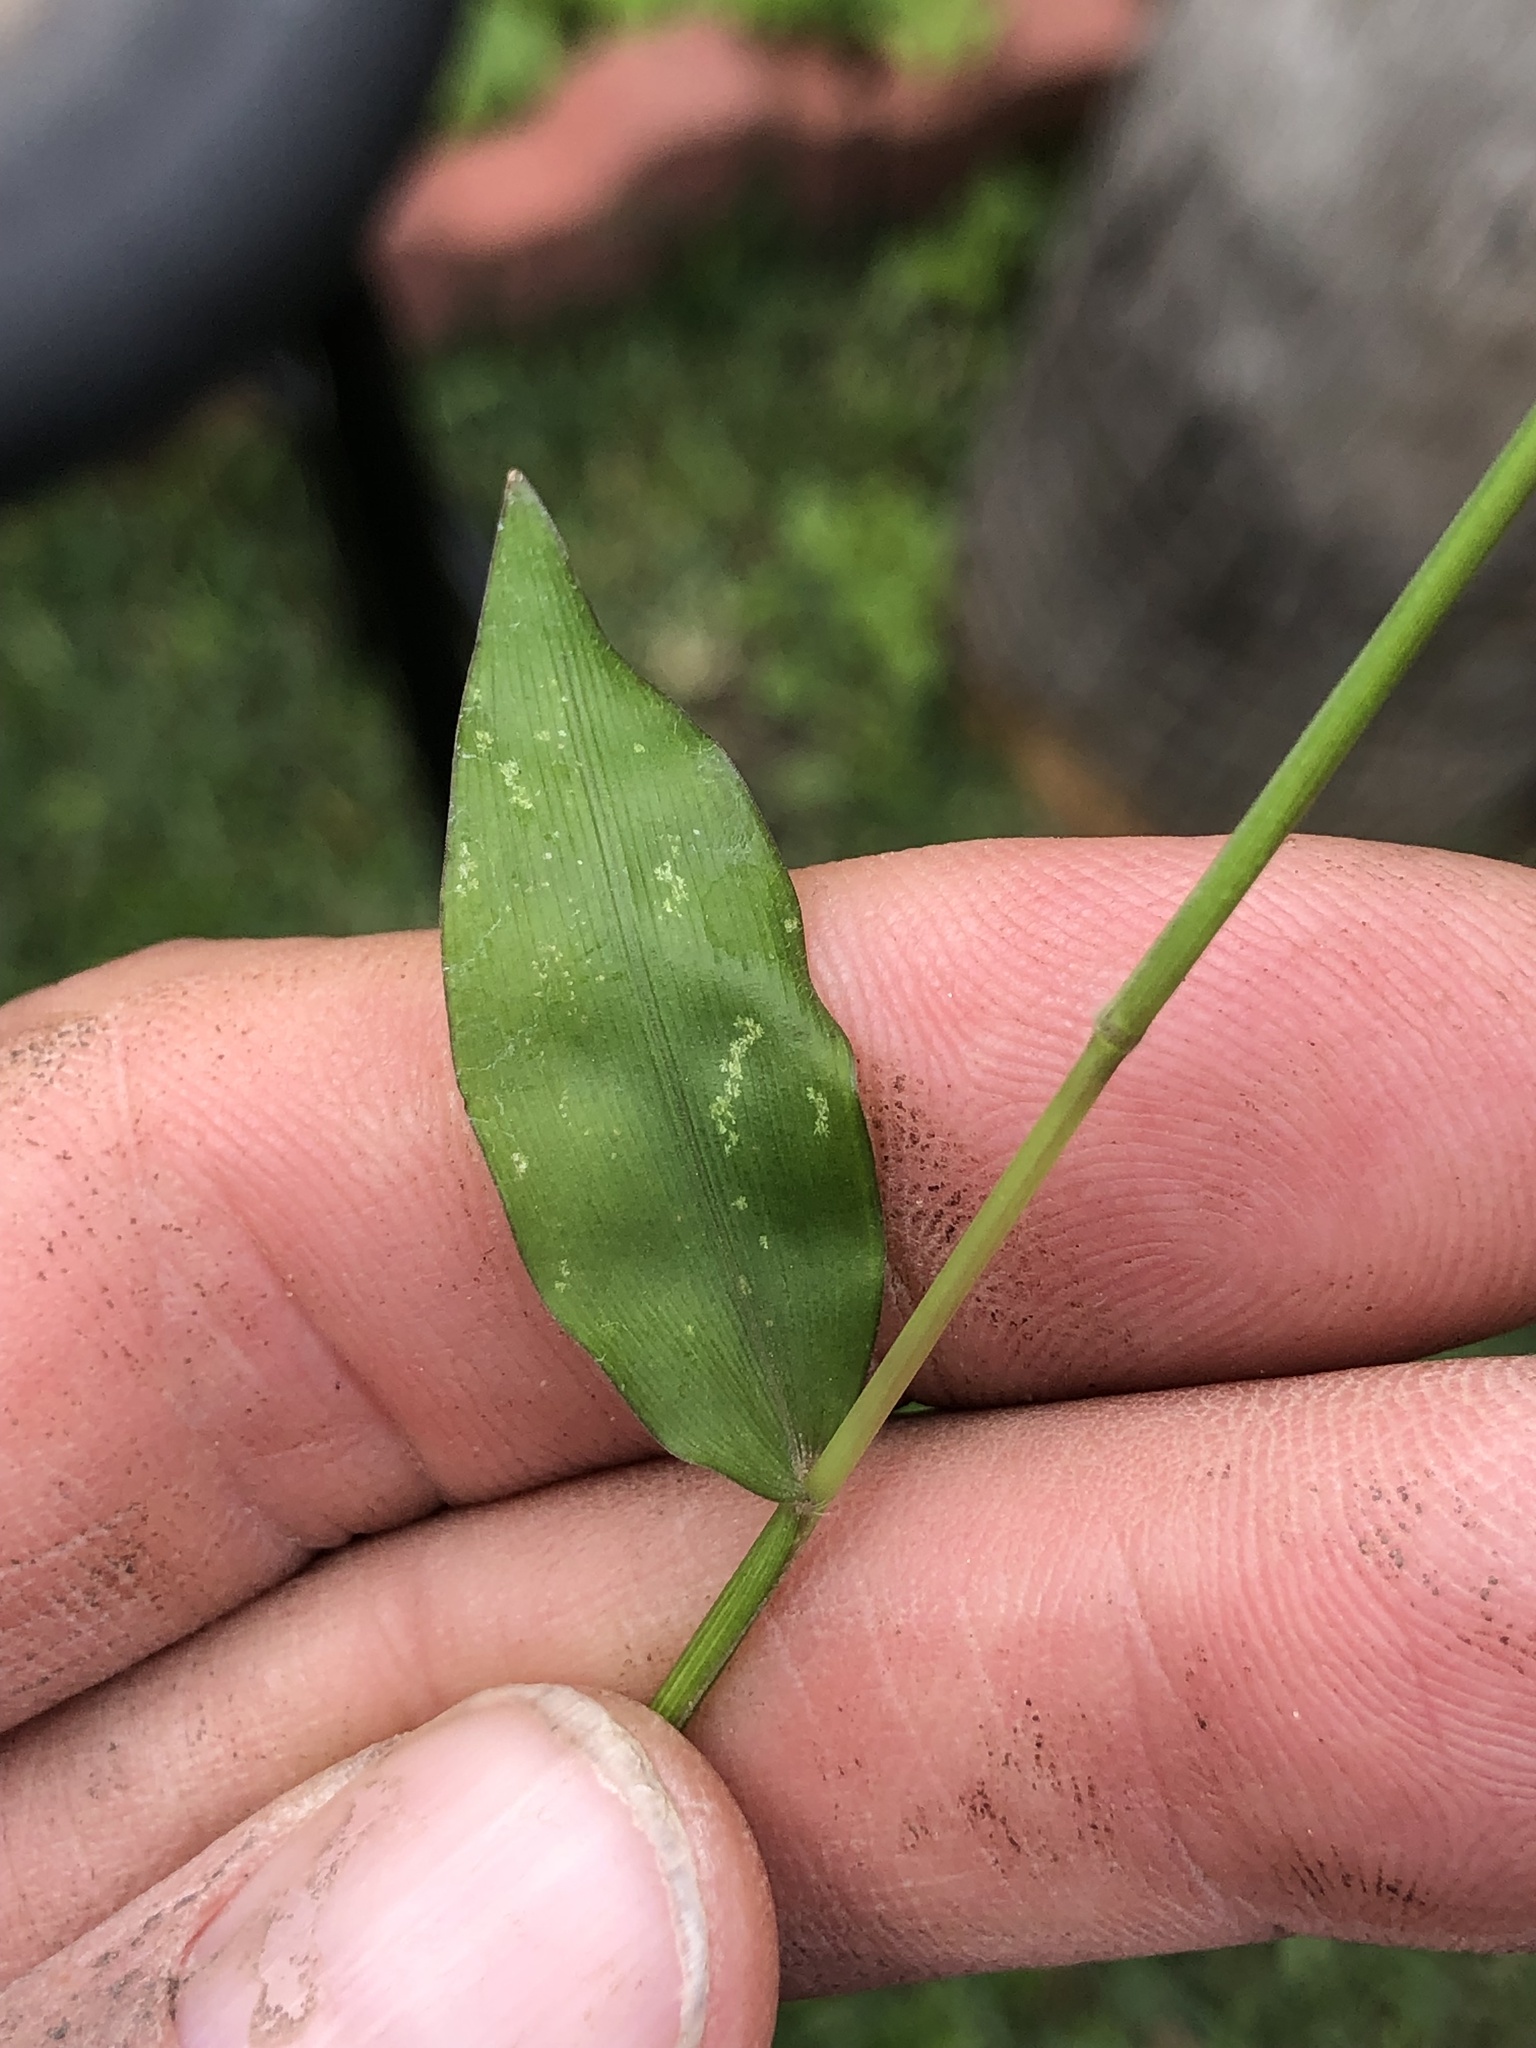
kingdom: Plantae
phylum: Tracheophyta
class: Liliopsida
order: Poales
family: Poaceae
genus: Oplismenus
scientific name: Oplismenus hirtellus
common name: Basketgrass
